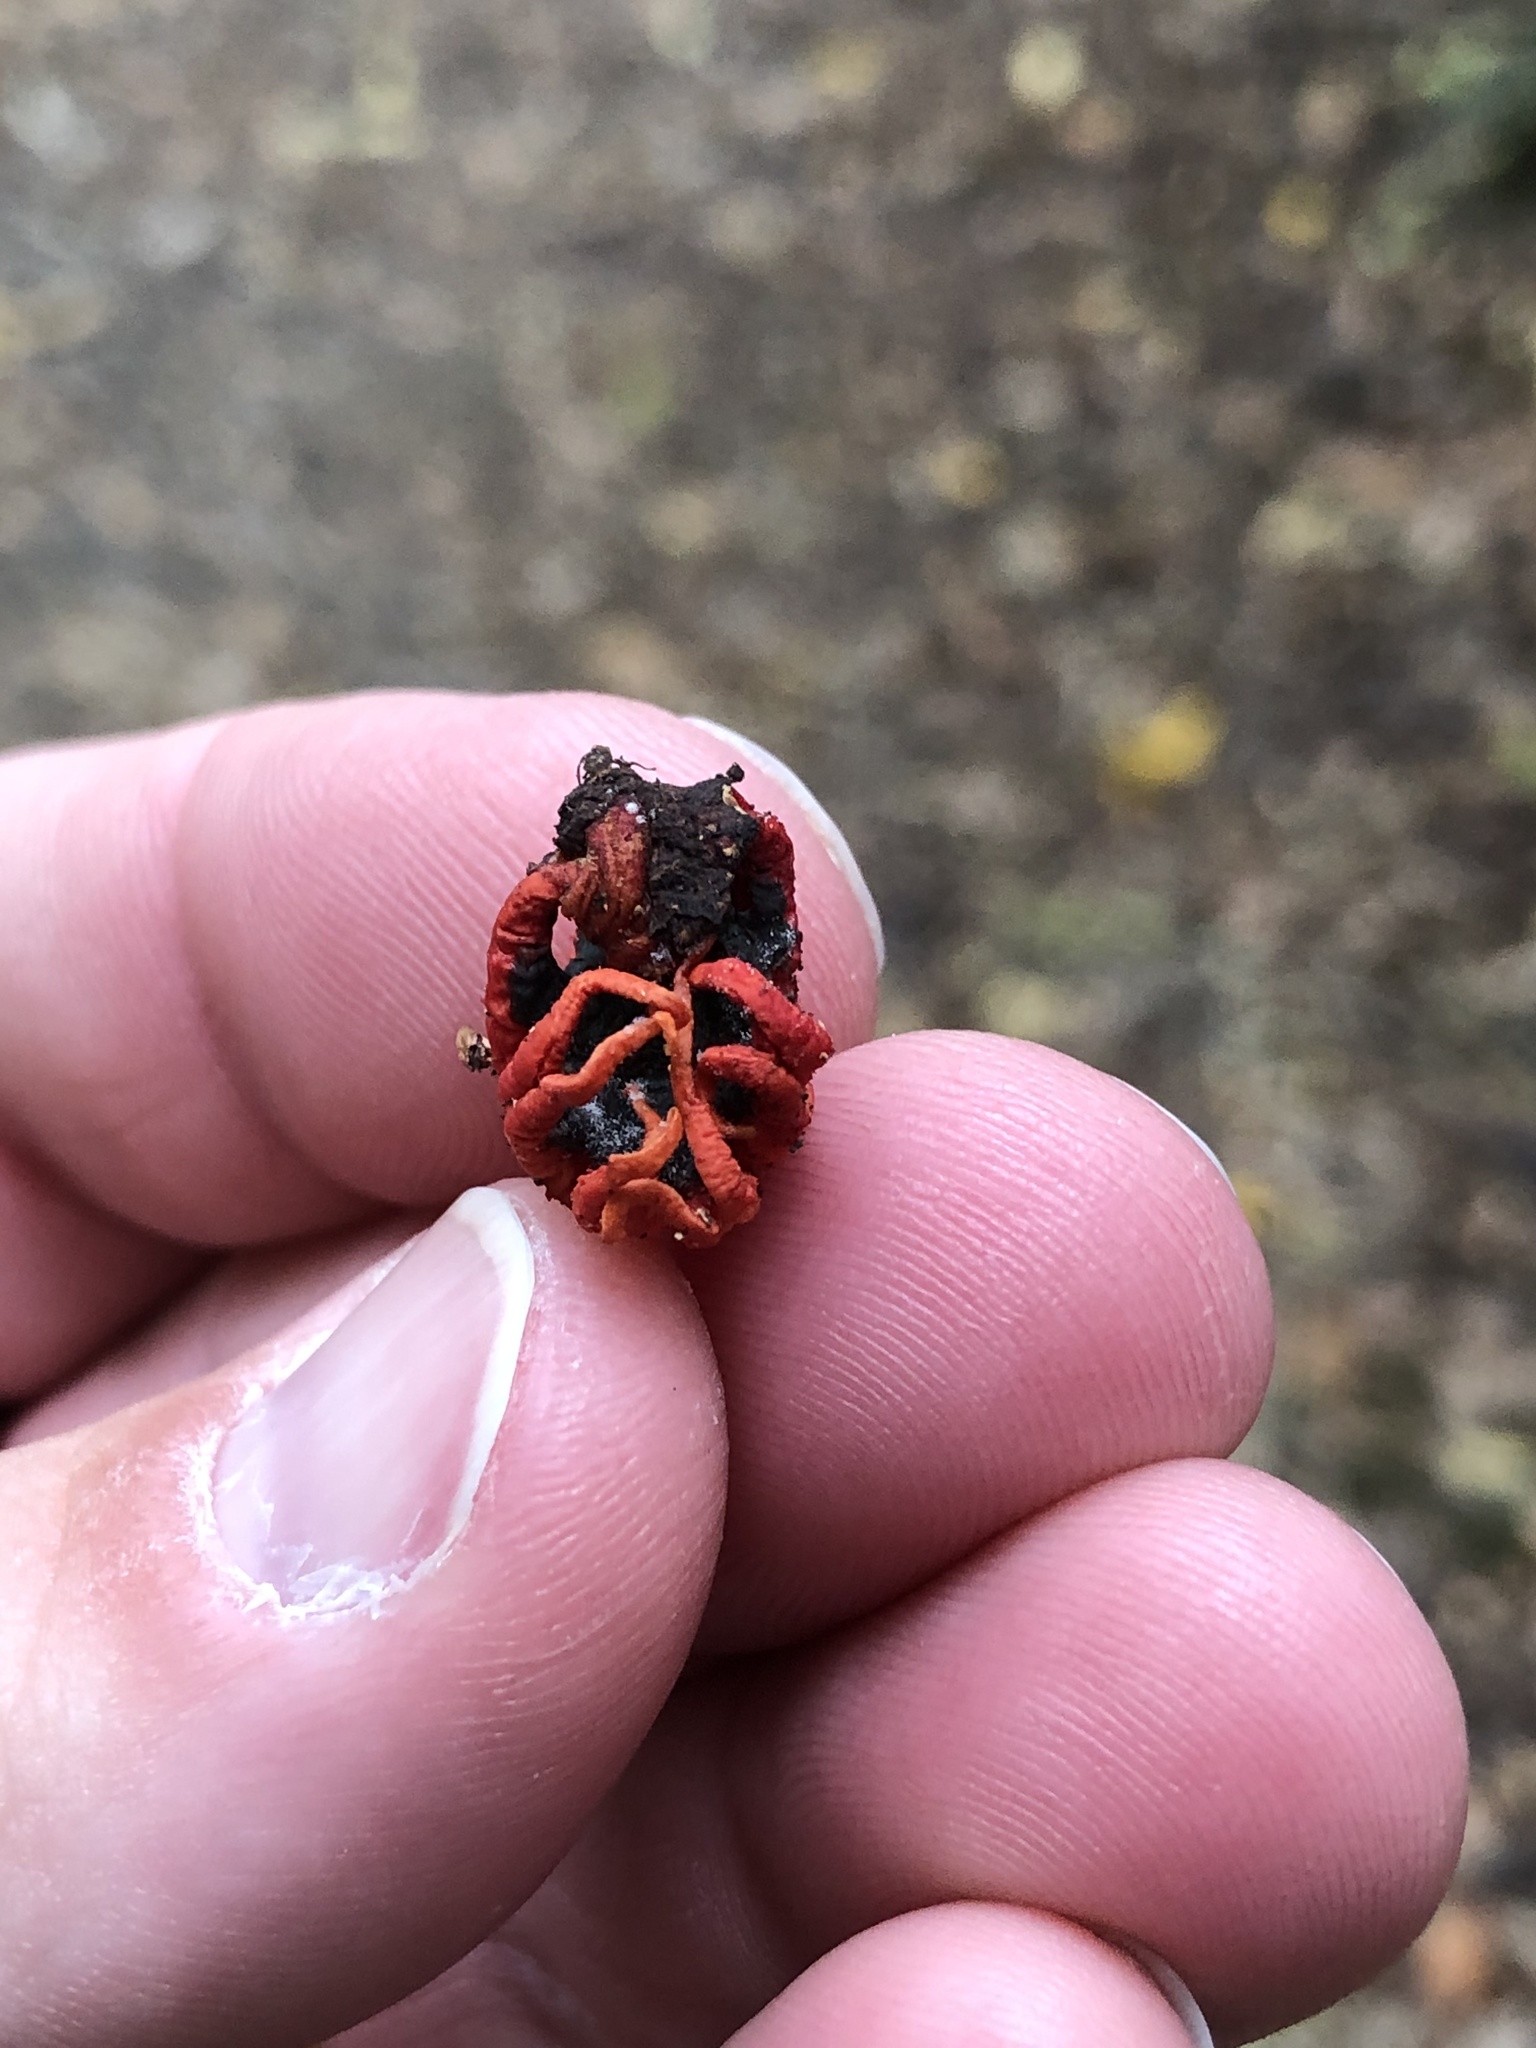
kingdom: Fungi
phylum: Basidiomycota
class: Agaricomycetes
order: Phallales
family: Phallaceae
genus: Aseroe
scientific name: Aseroe rubra
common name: Starfish fungus
